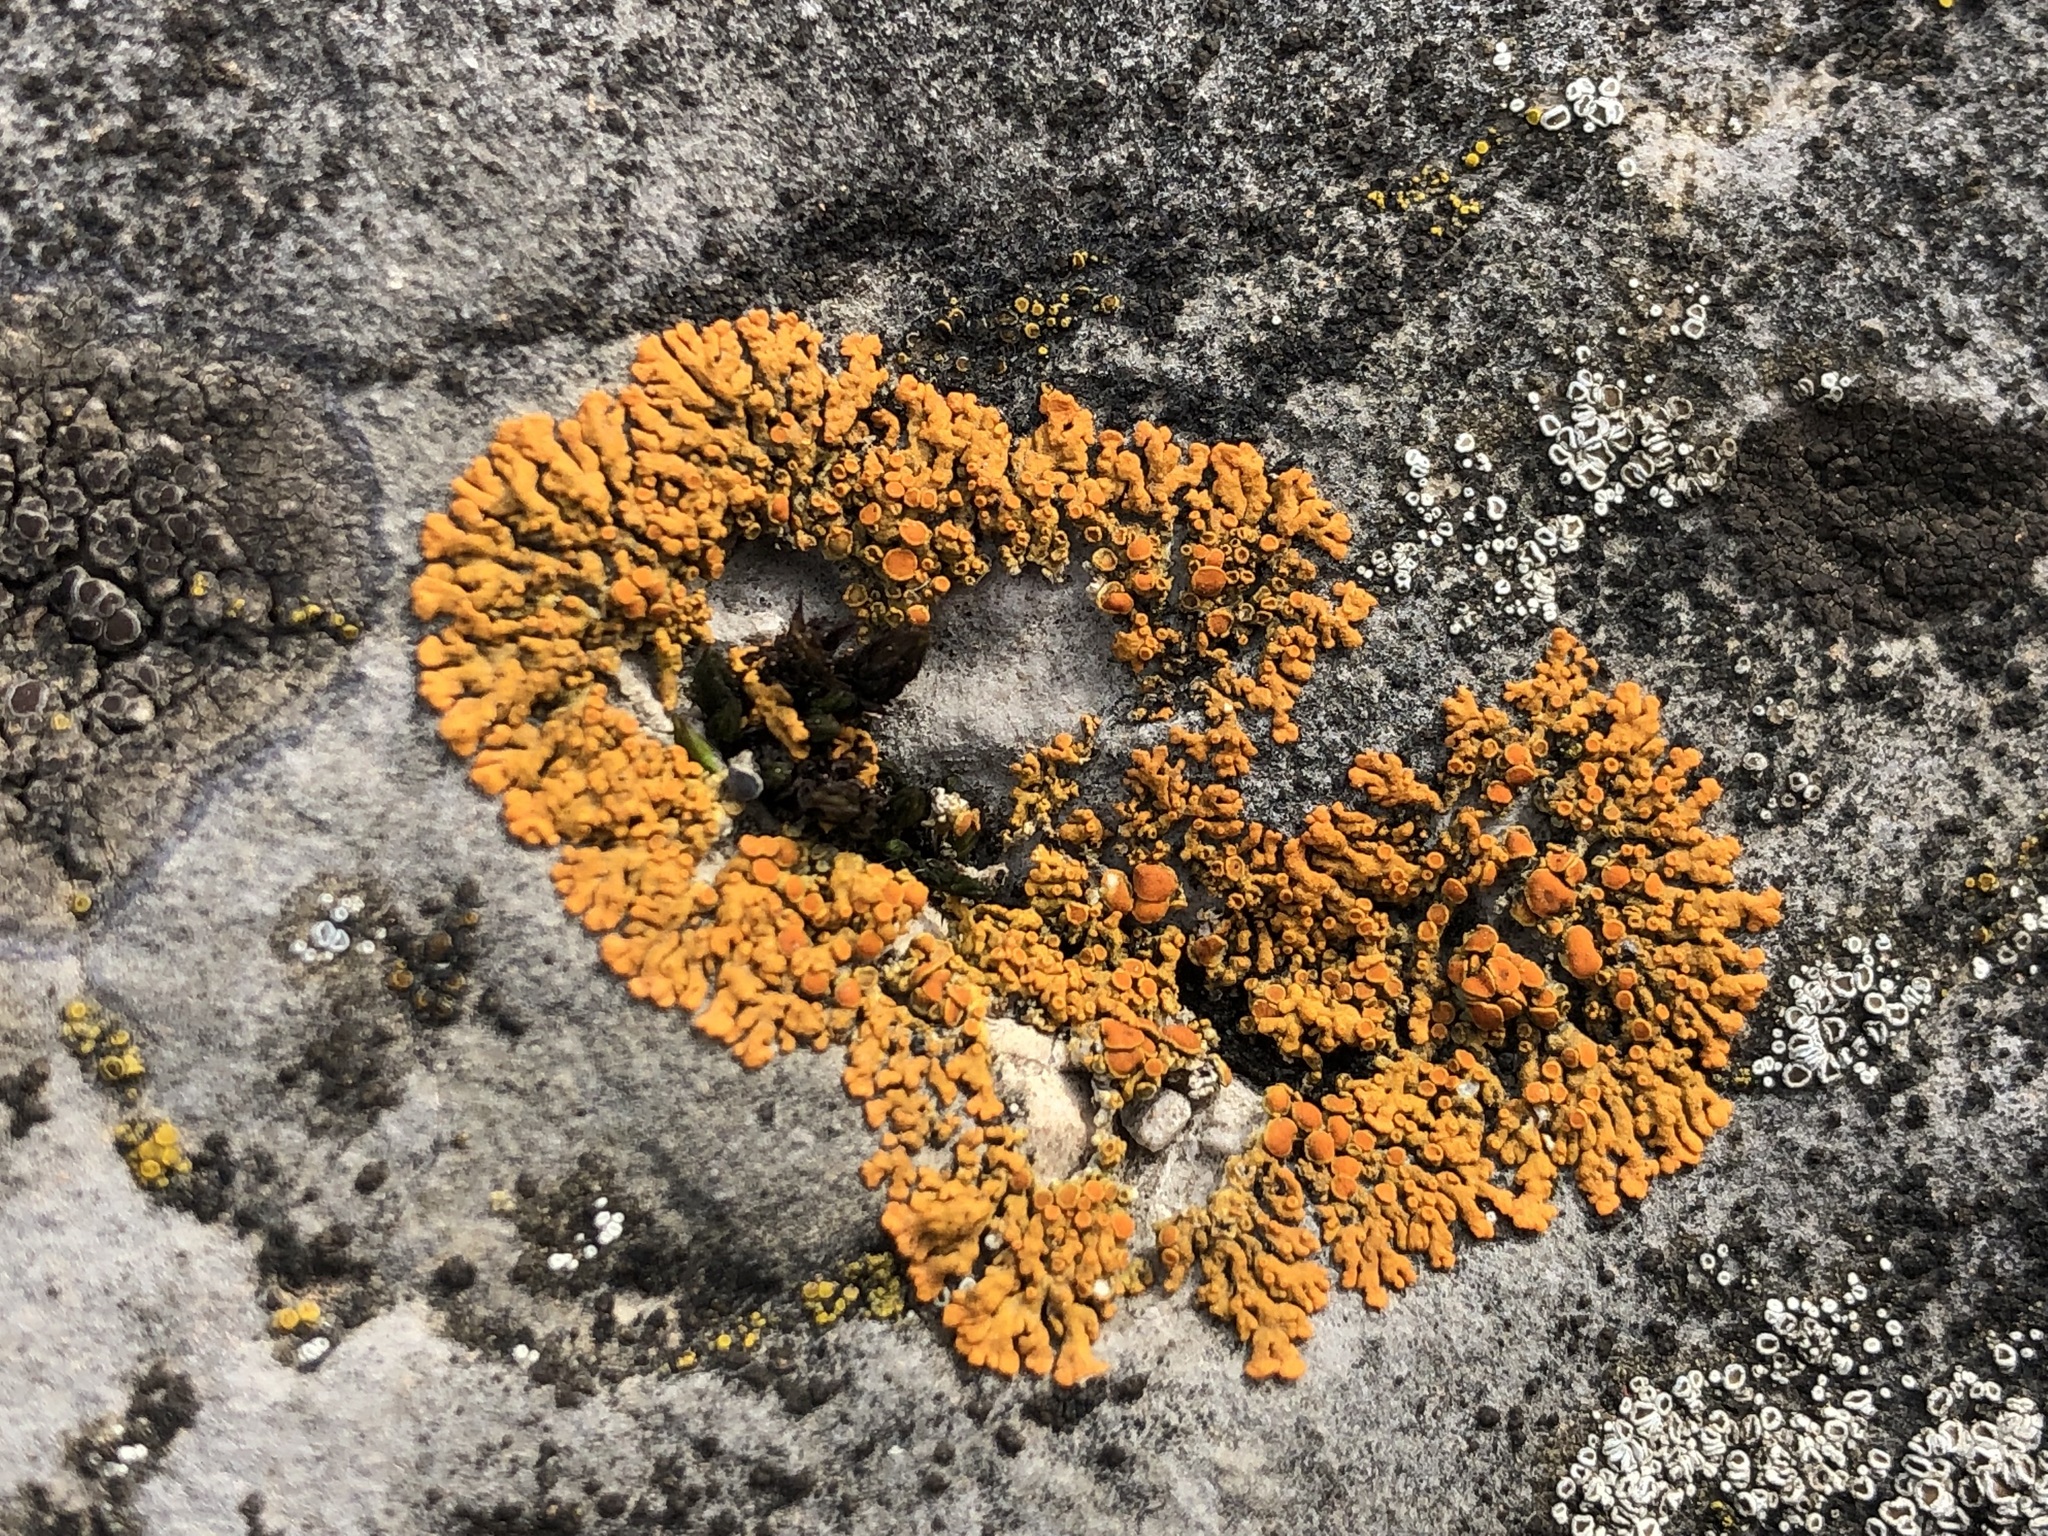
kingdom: Fungi
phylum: Ascomycota
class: Lecanoromycetes
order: Teloschistales
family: Teloschistaceae
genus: Xanthoria
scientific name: Xanthoria elegans
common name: Elegant sunburst lichen
